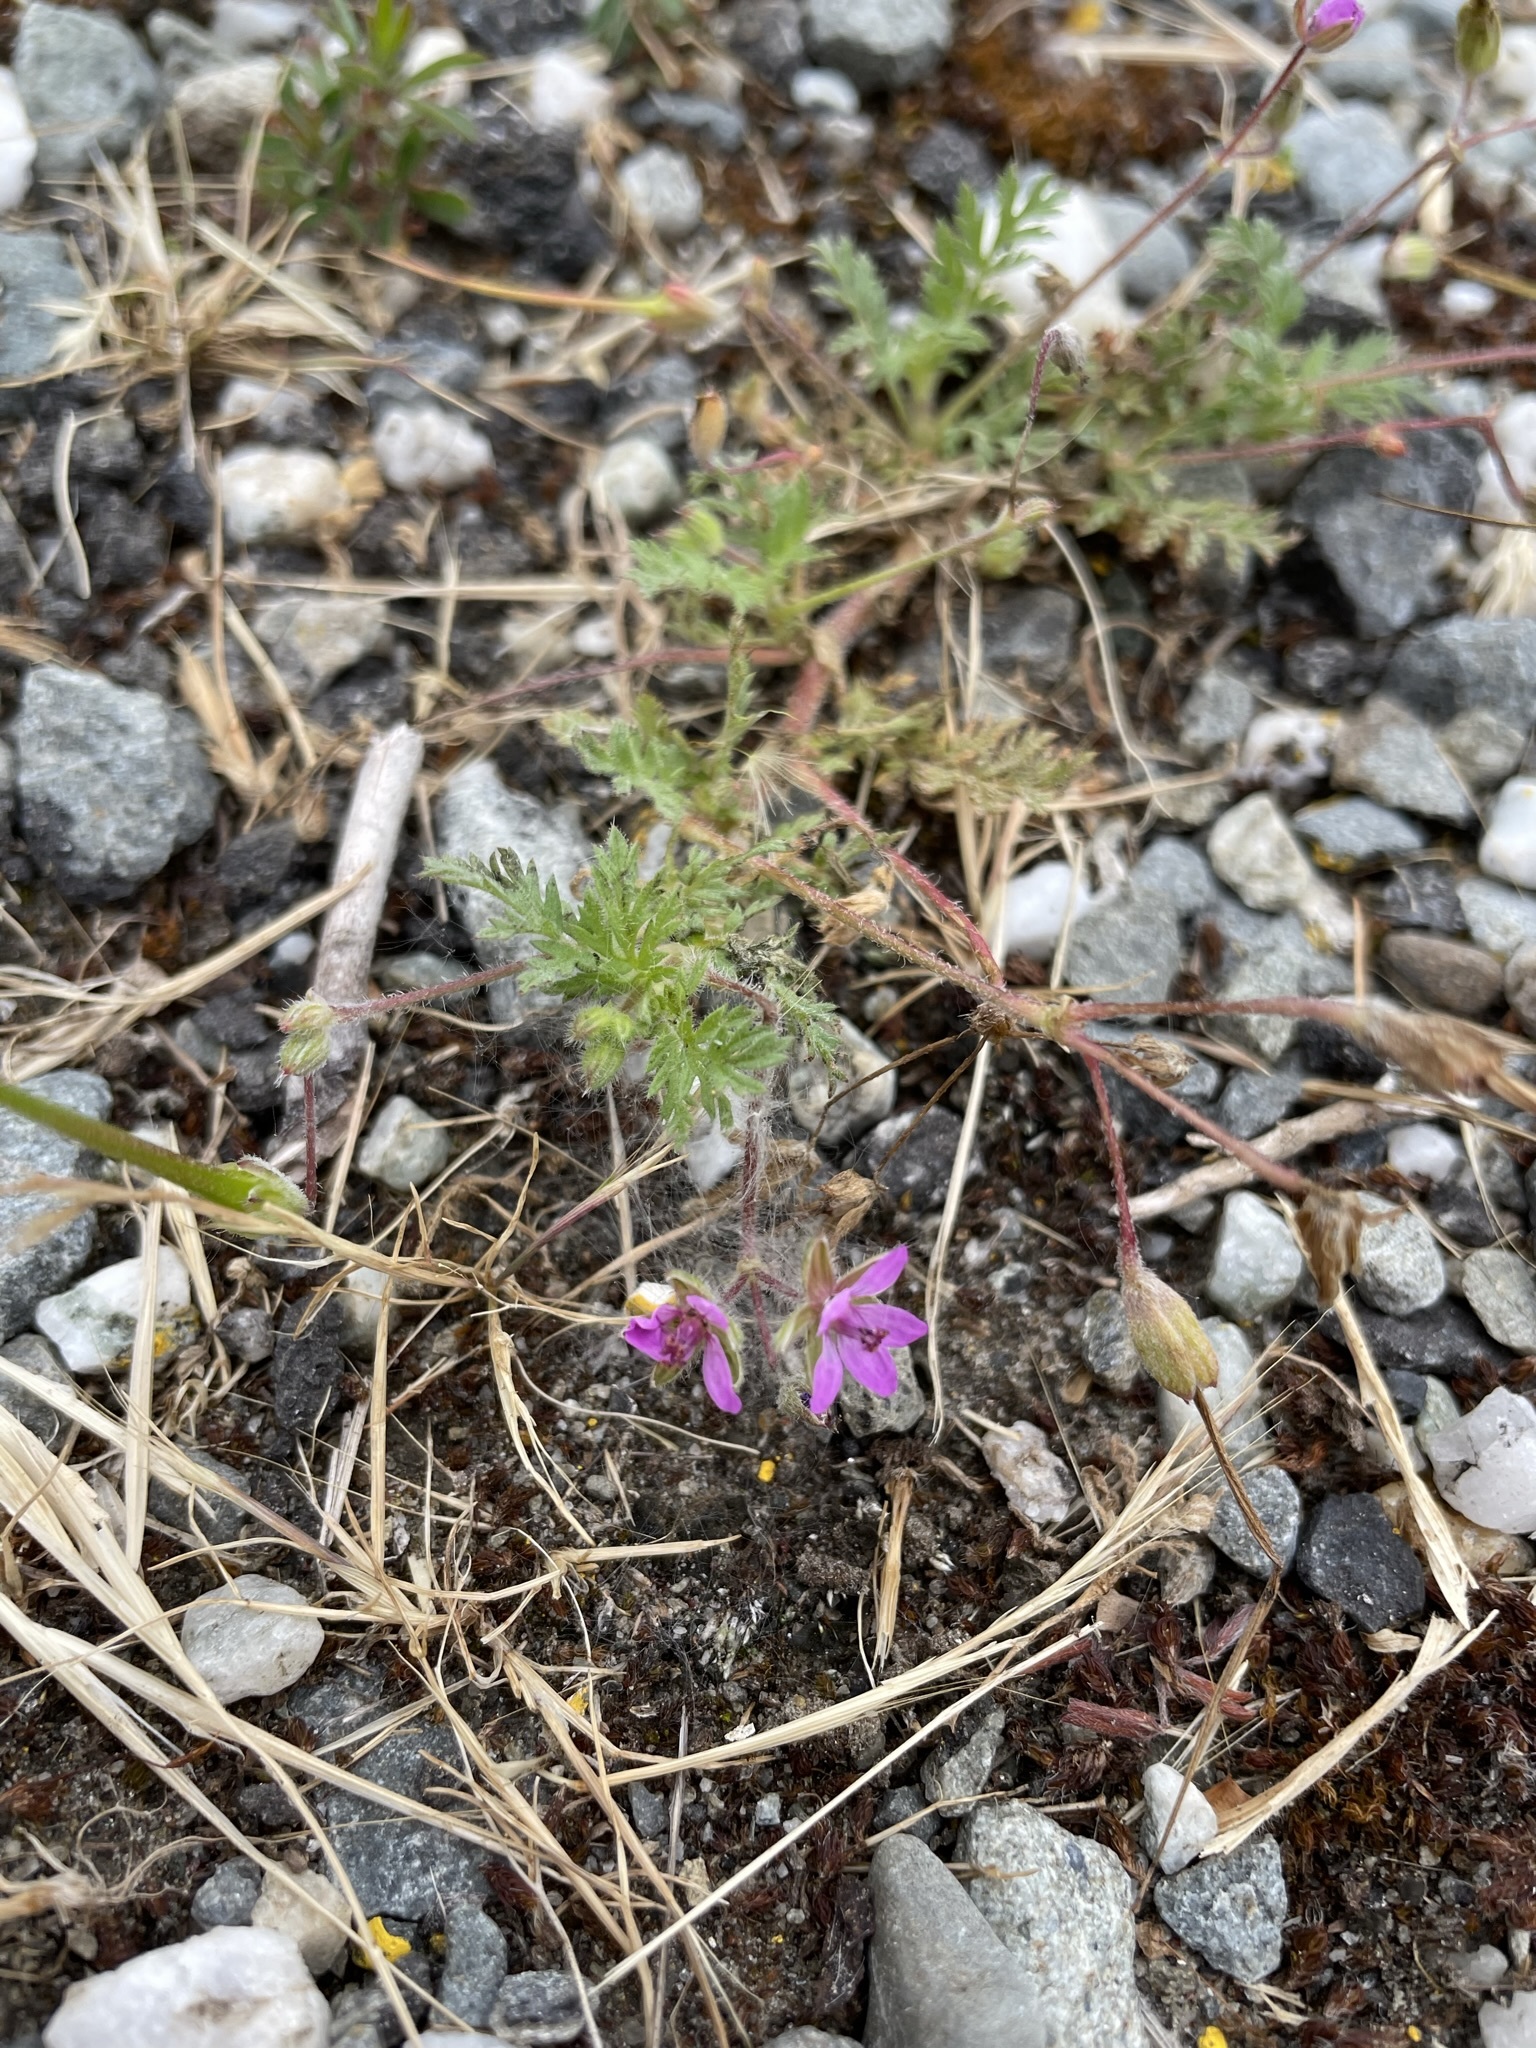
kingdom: Plantae
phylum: Tracheophyta
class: Magnoliopsida
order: Geraniales
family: Geraniaceae
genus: Erodium
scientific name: Erodium cicutarium
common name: Common stork's-bill
